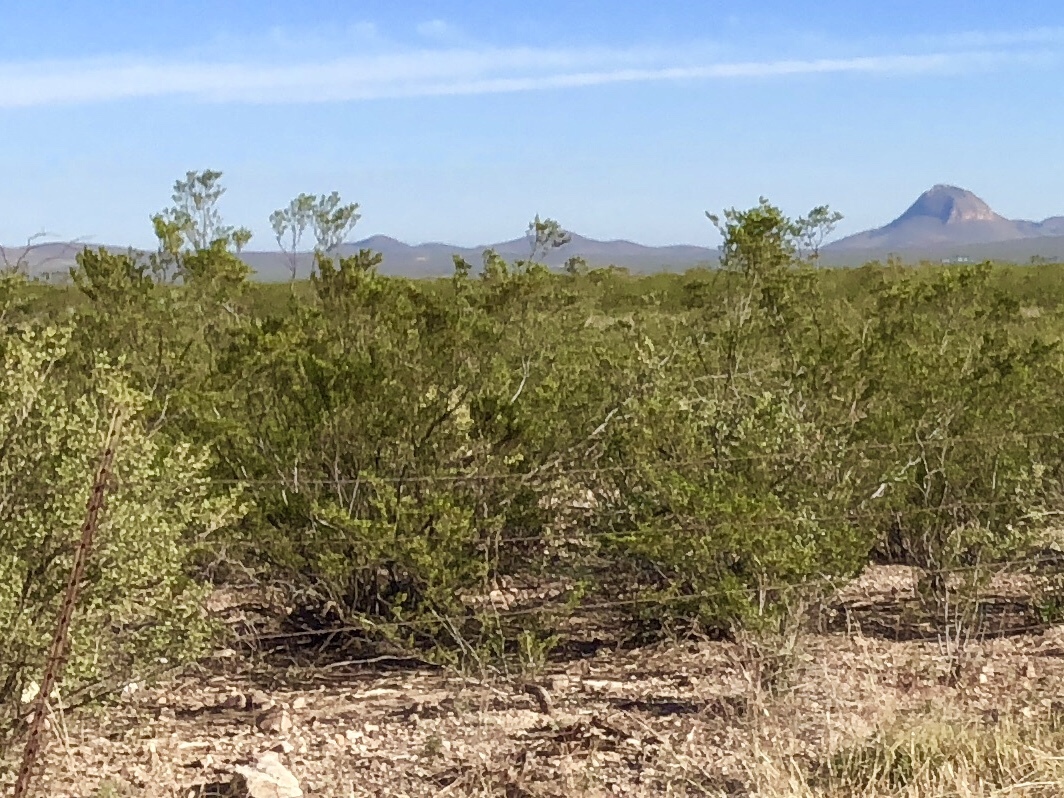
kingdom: Plantae
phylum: Tracheophyta
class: Magnoliopsida
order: Zygophyllales
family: Zygophyllaceae
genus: Larrea
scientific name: Larrea tridentata
